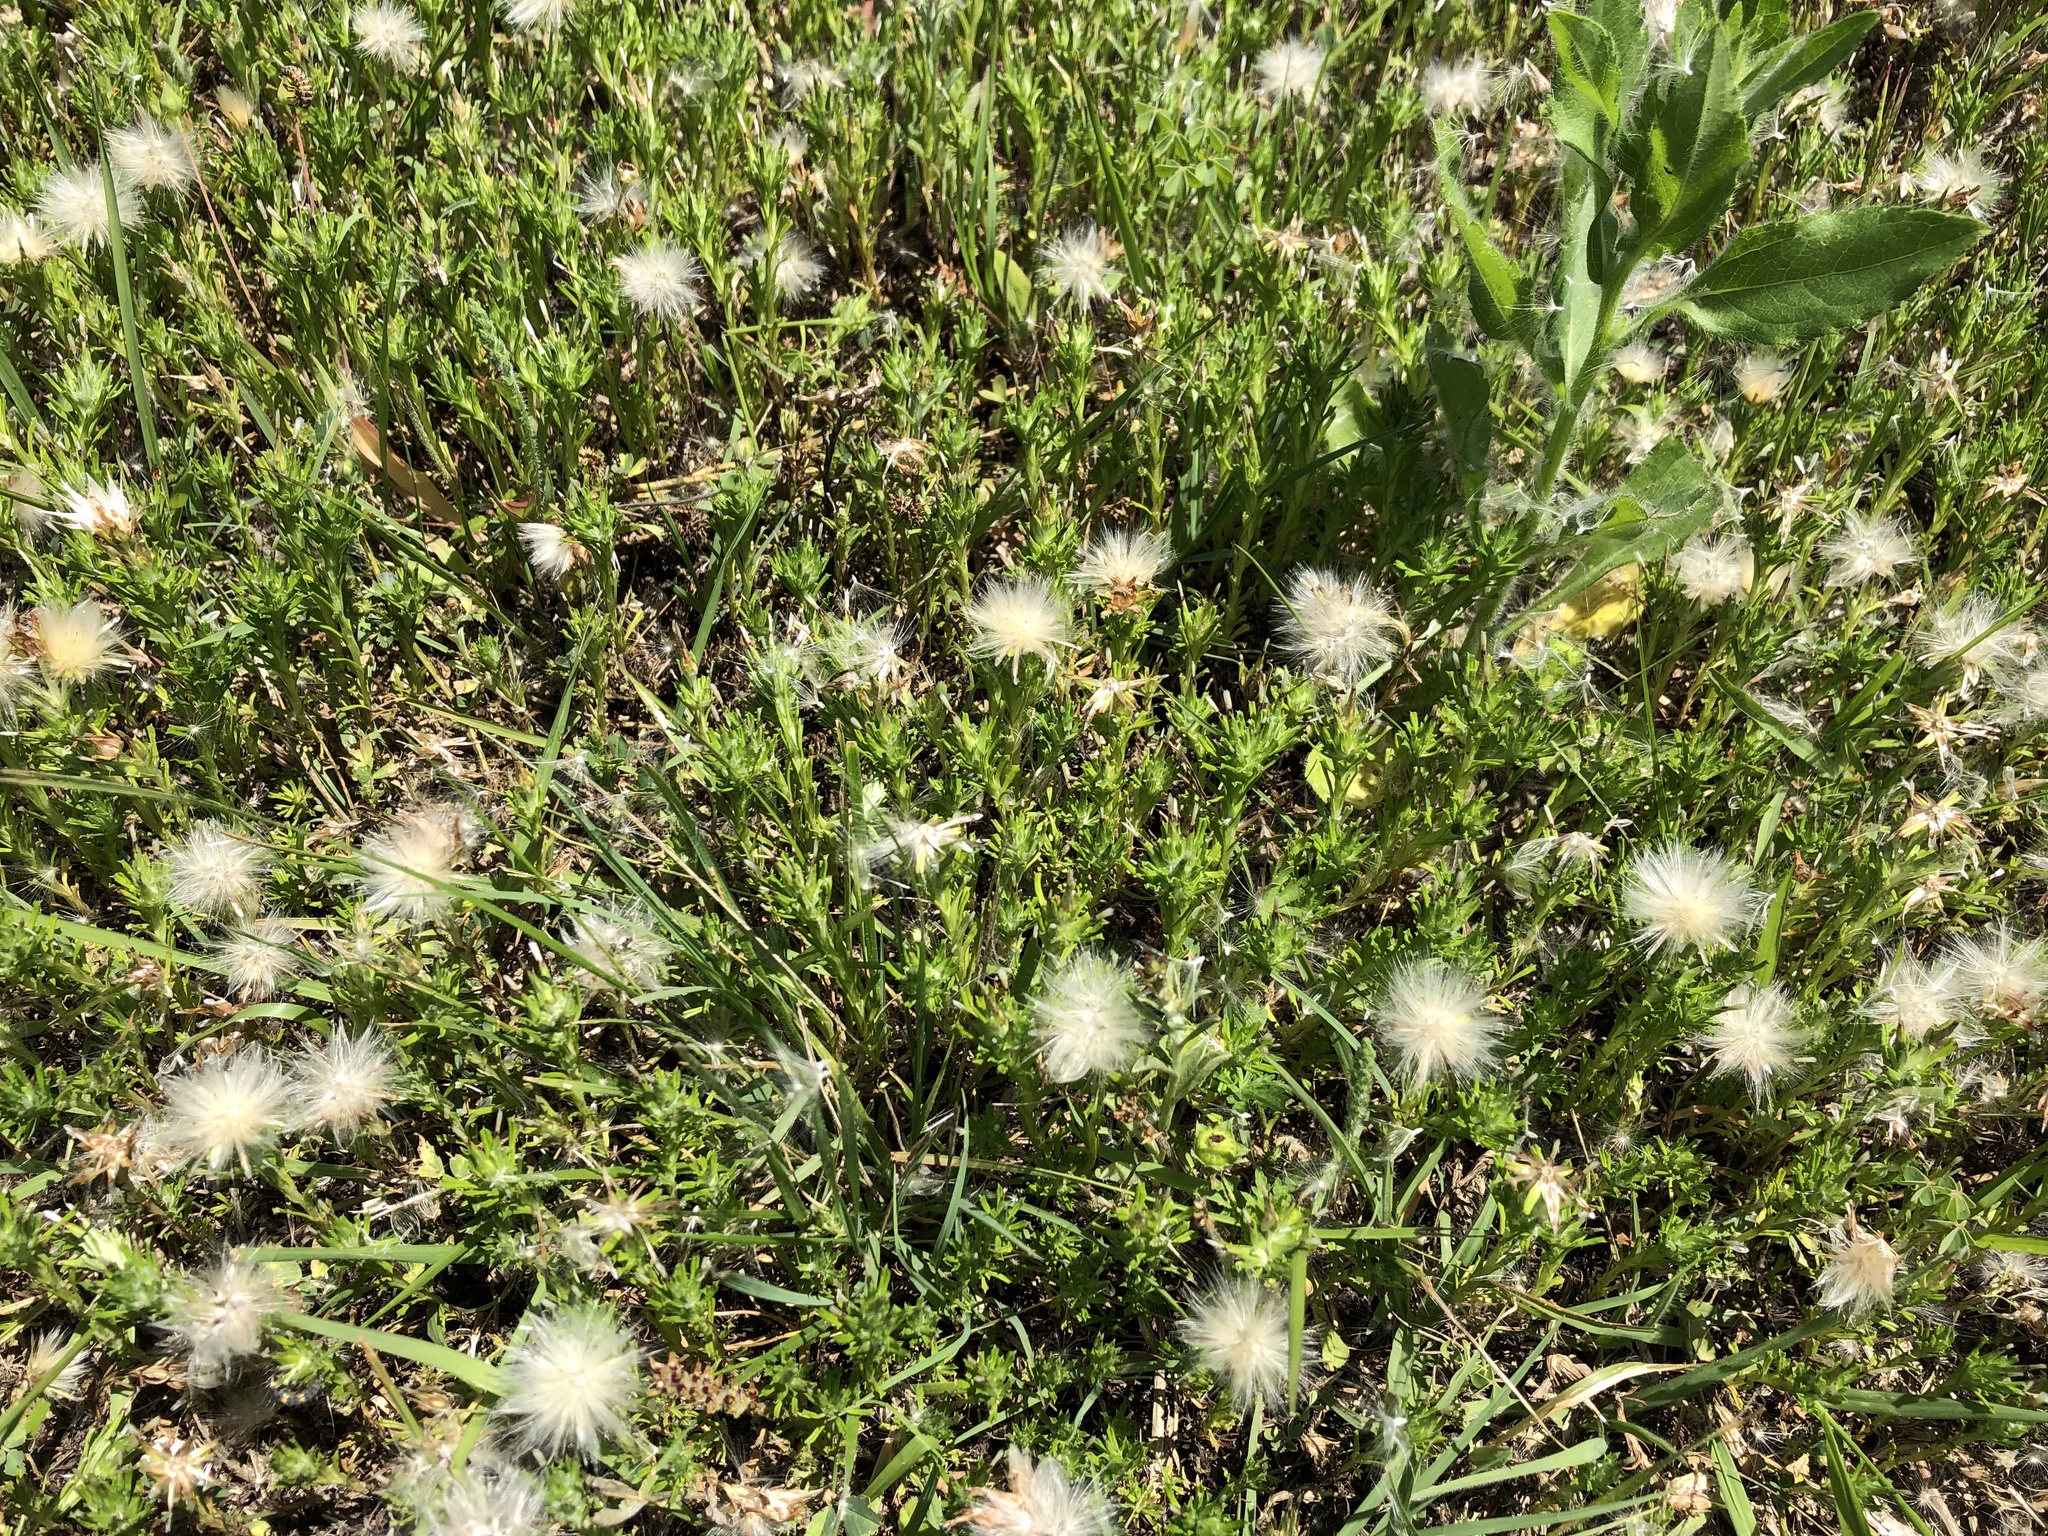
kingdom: Plantae
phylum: Tracheophyta
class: Magnoliopsida
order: Asterales
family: Asteraceae
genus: Facelis
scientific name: Facelis retusa
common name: Annual trampweed
